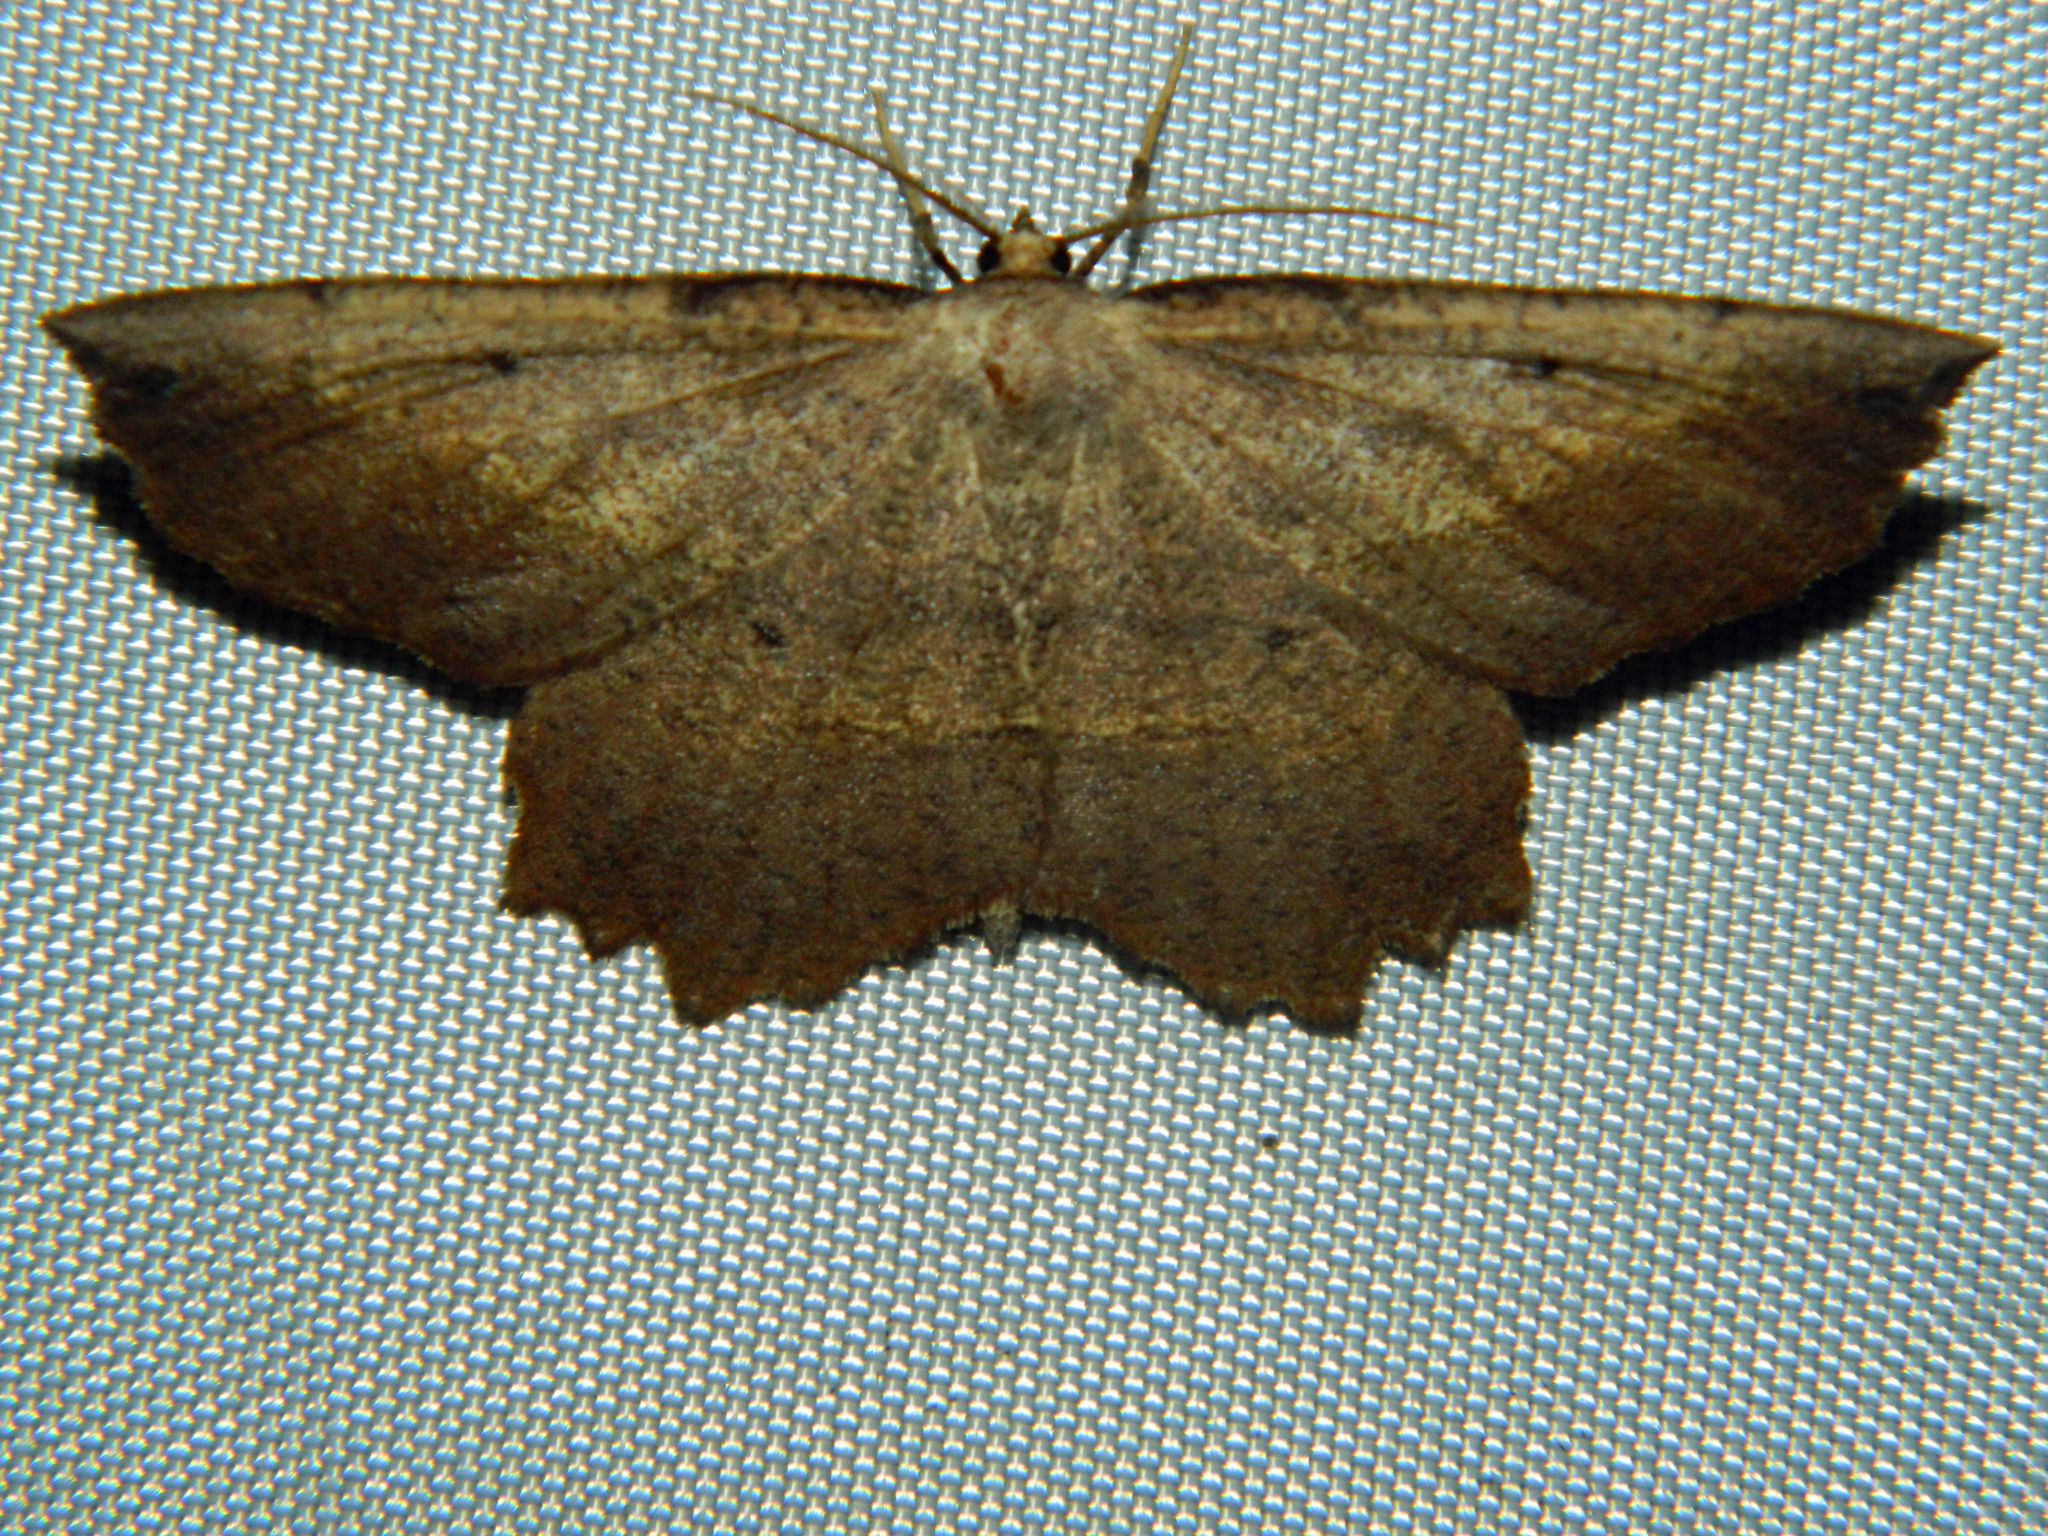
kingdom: Animalia
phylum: Arthropoda
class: Insecta
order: Lepidoptera
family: Geometridae
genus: Euchlaena
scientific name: Euchlaena muzaria
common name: Muzaria euchlaena
